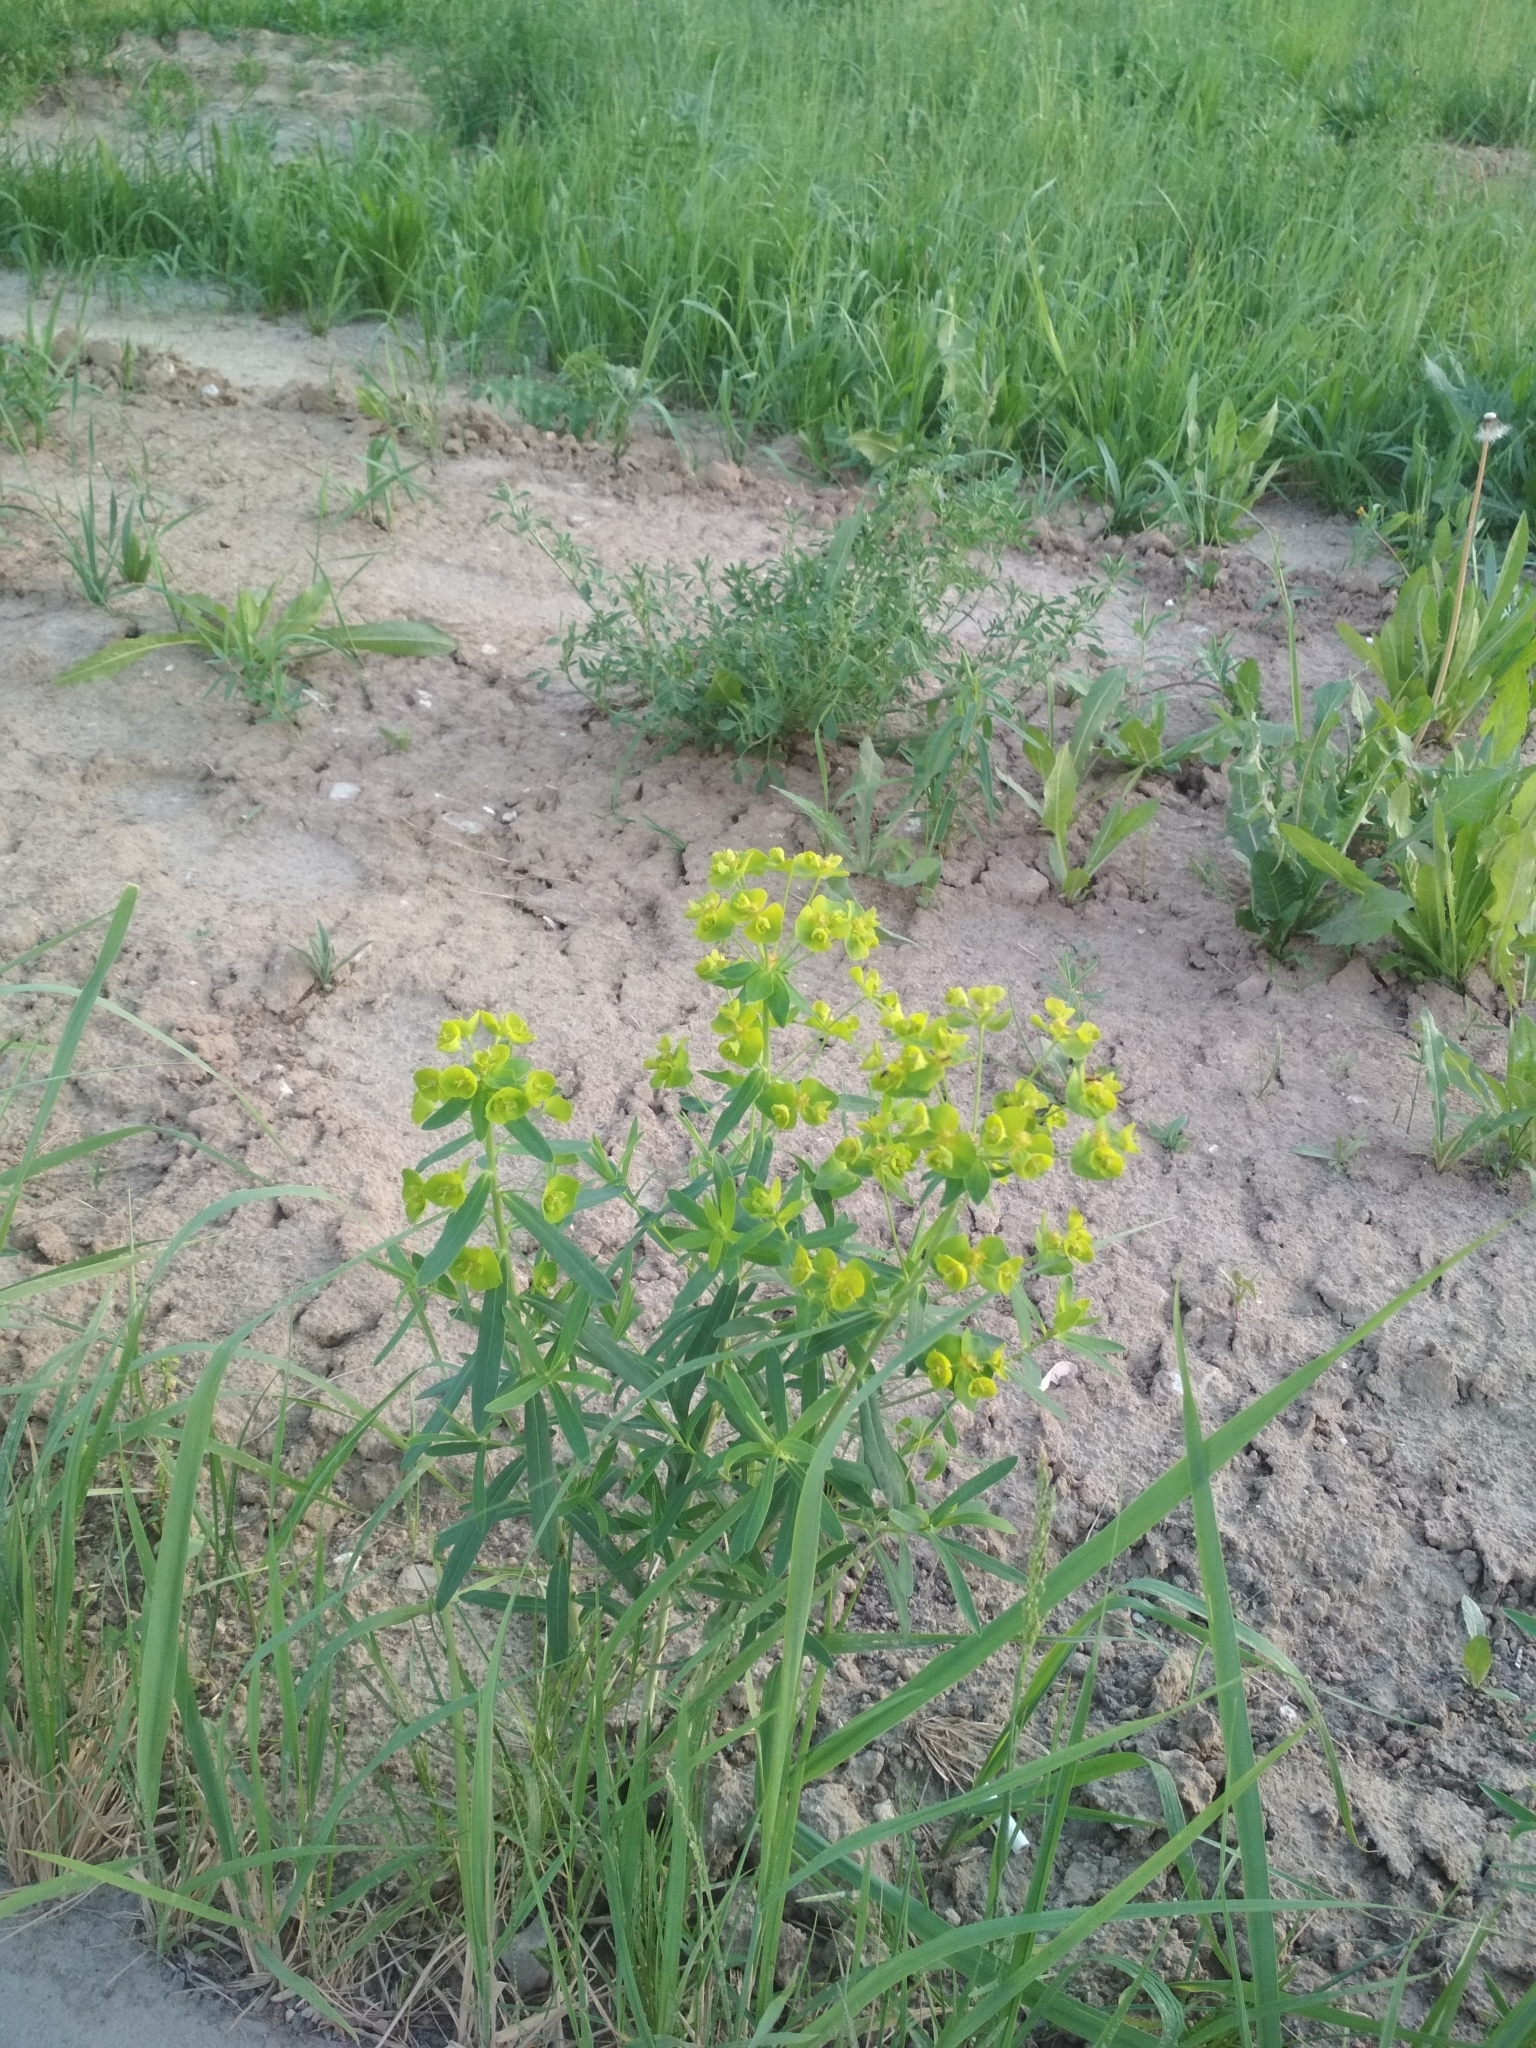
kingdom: Plantae
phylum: Tracheophyta
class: Magnoliopsida
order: Malpighiales
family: Euphorbiaceae
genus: Euphorbia
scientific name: Euphorbia virgata
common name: Leafy spurge
